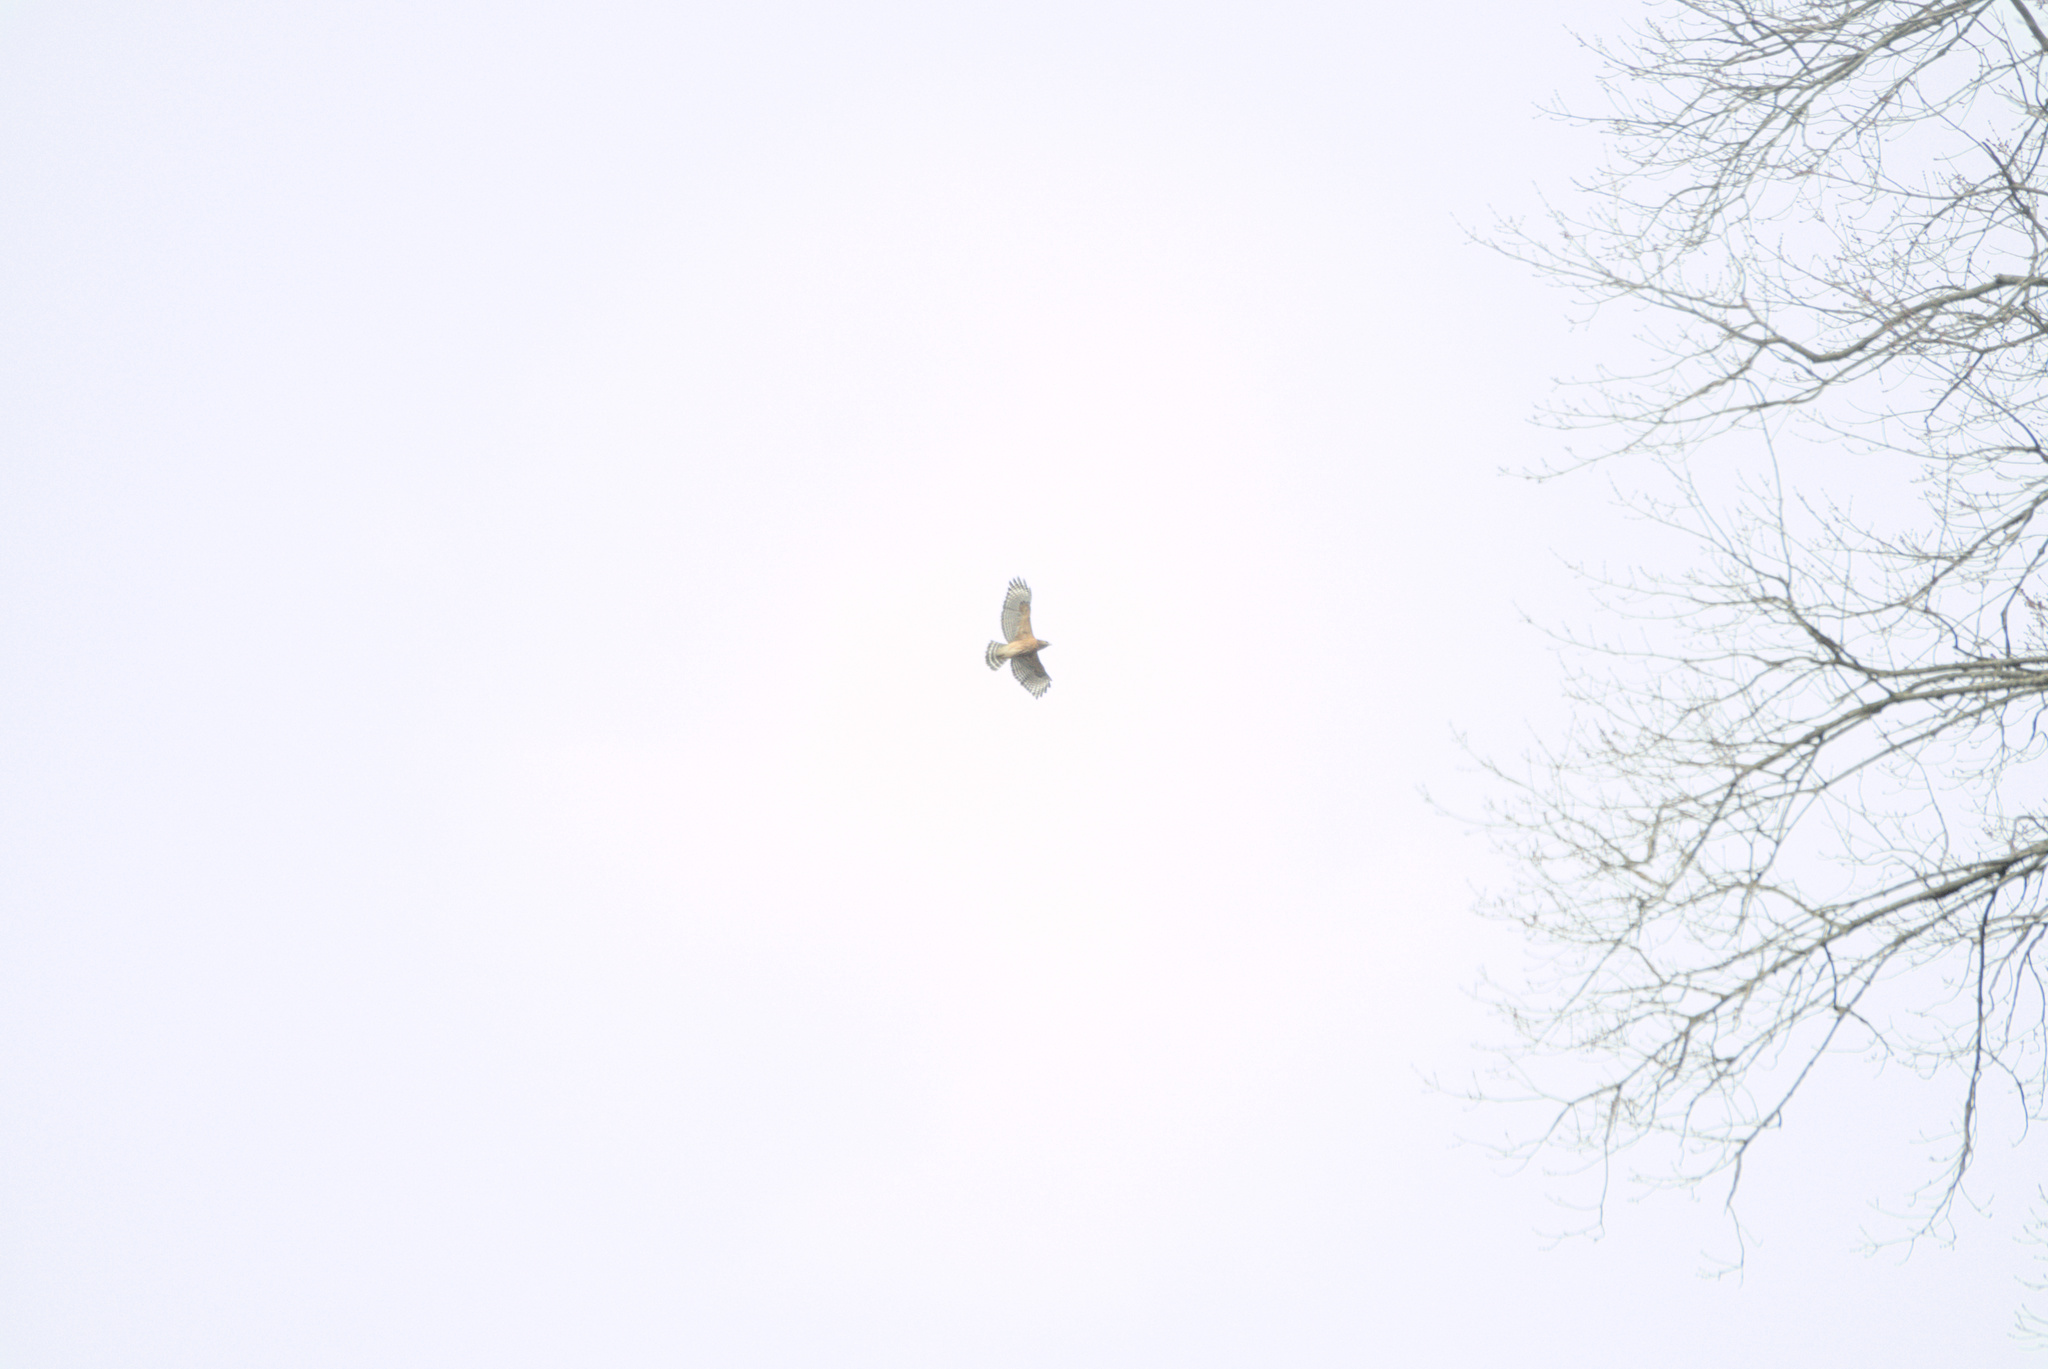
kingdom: Animalia
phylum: Chordata
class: Aves
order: Accipitriformes
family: Accipitridae
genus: Buteo
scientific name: Buteo lineatus
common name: Red-shouldered hawk
